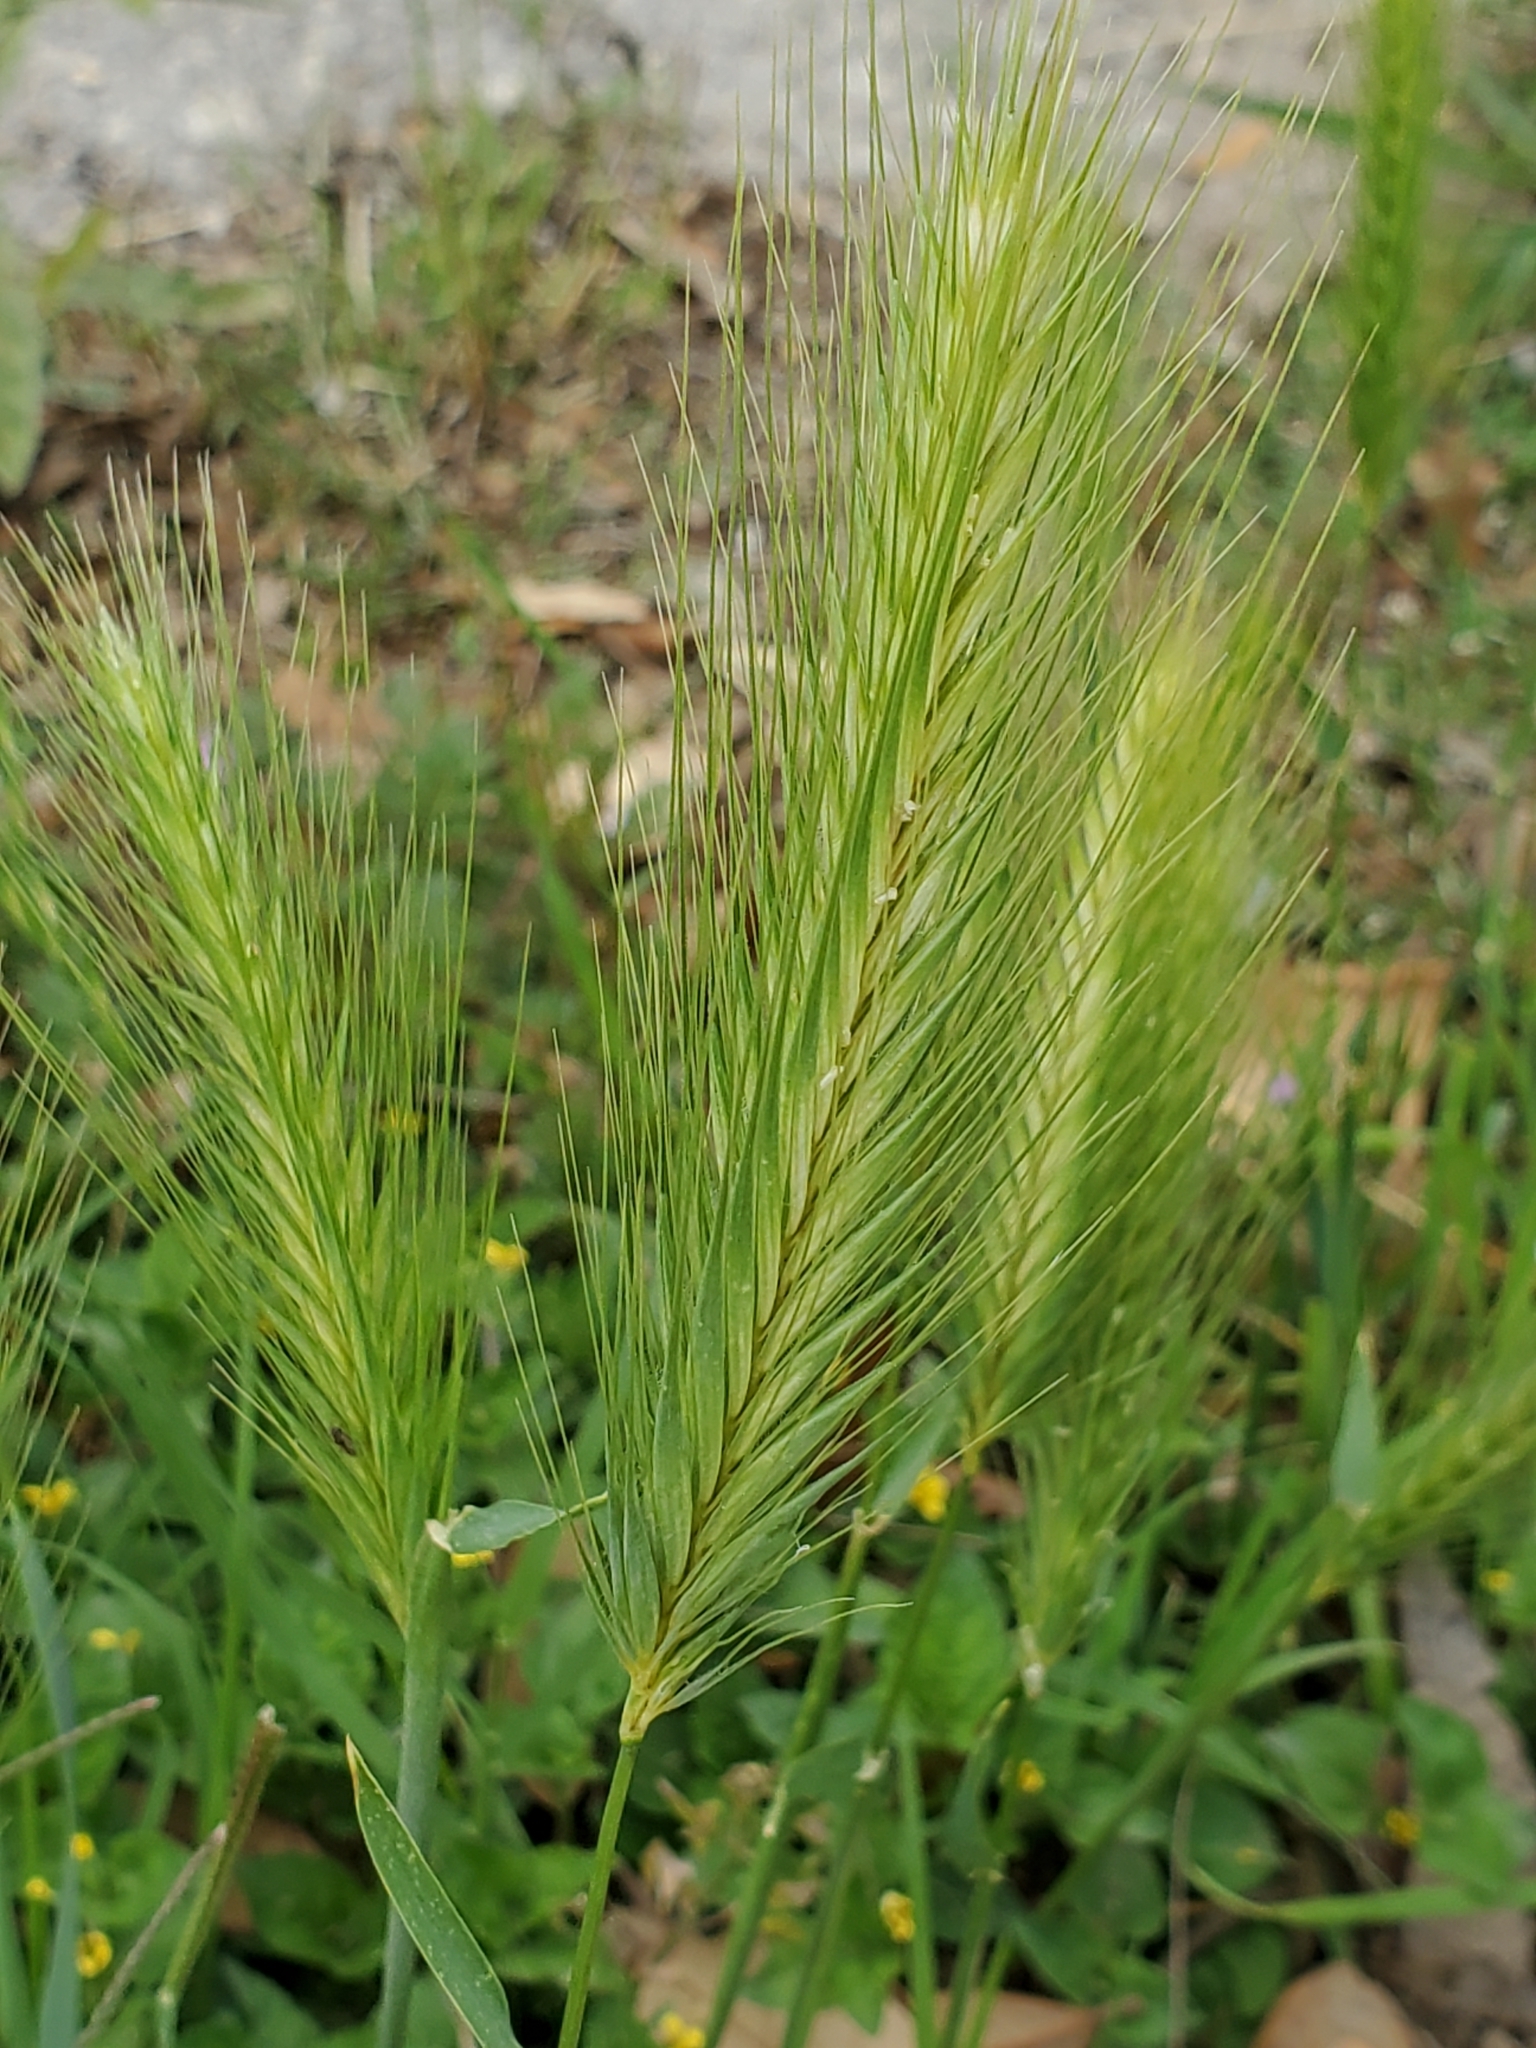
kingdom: Plantae
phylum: Tracheophyta
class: Liliopsida
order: Poales
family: Poaceae
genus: Hordeum
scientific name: Hordeum murinum
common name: Wall barley
